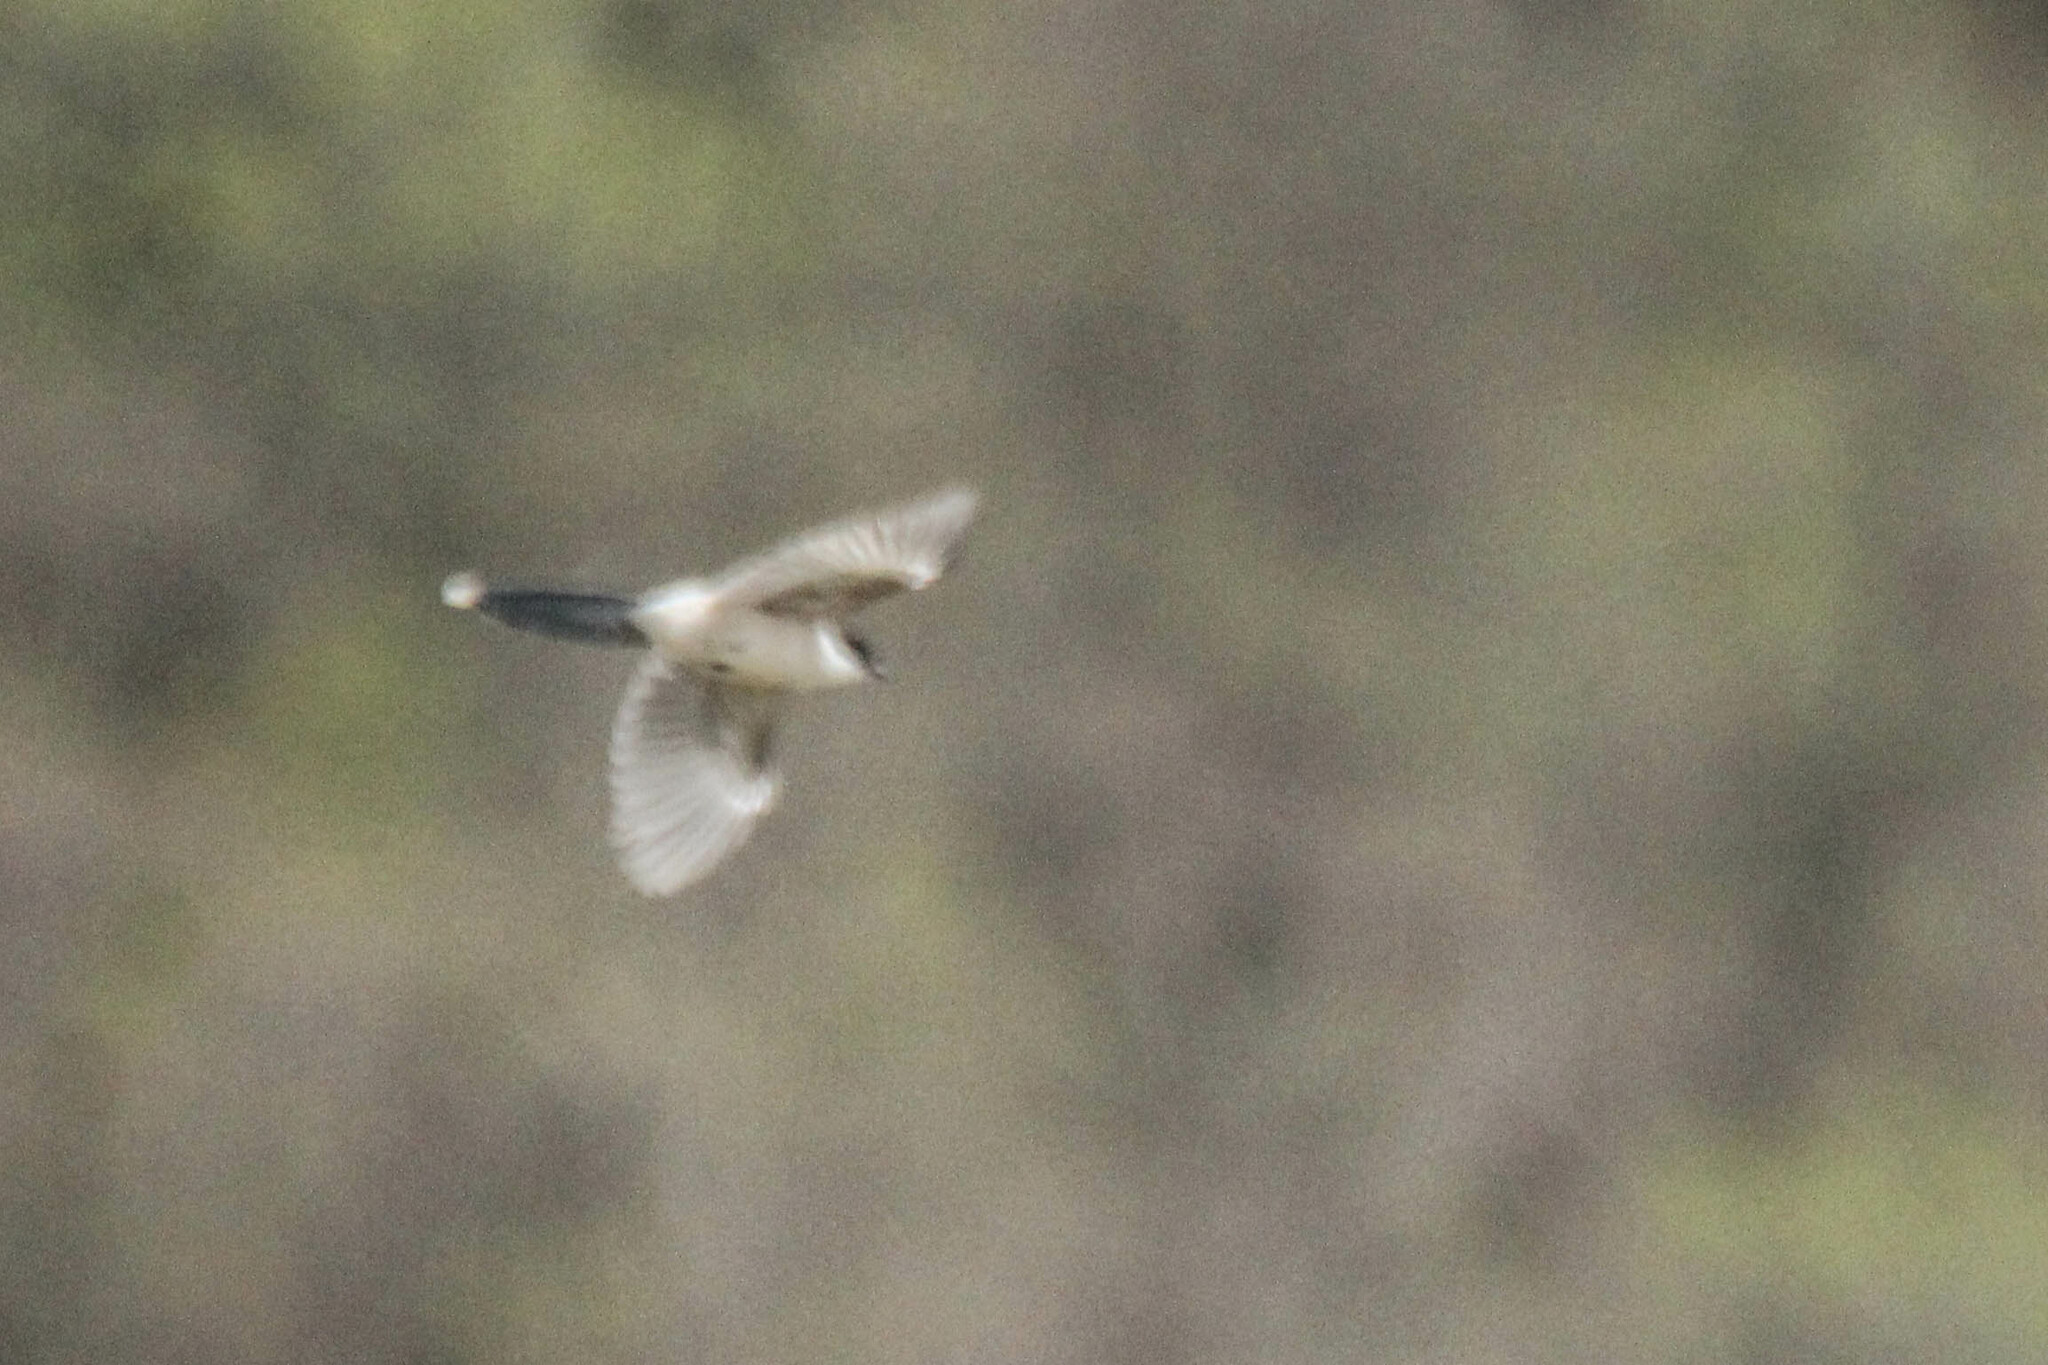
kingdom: Animalia
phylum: Chordata
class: Aves
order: Passeriformes
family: Corvidae
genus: Cyanopica
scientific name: Cyanopica cyanus
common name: Azure-winged magpie
